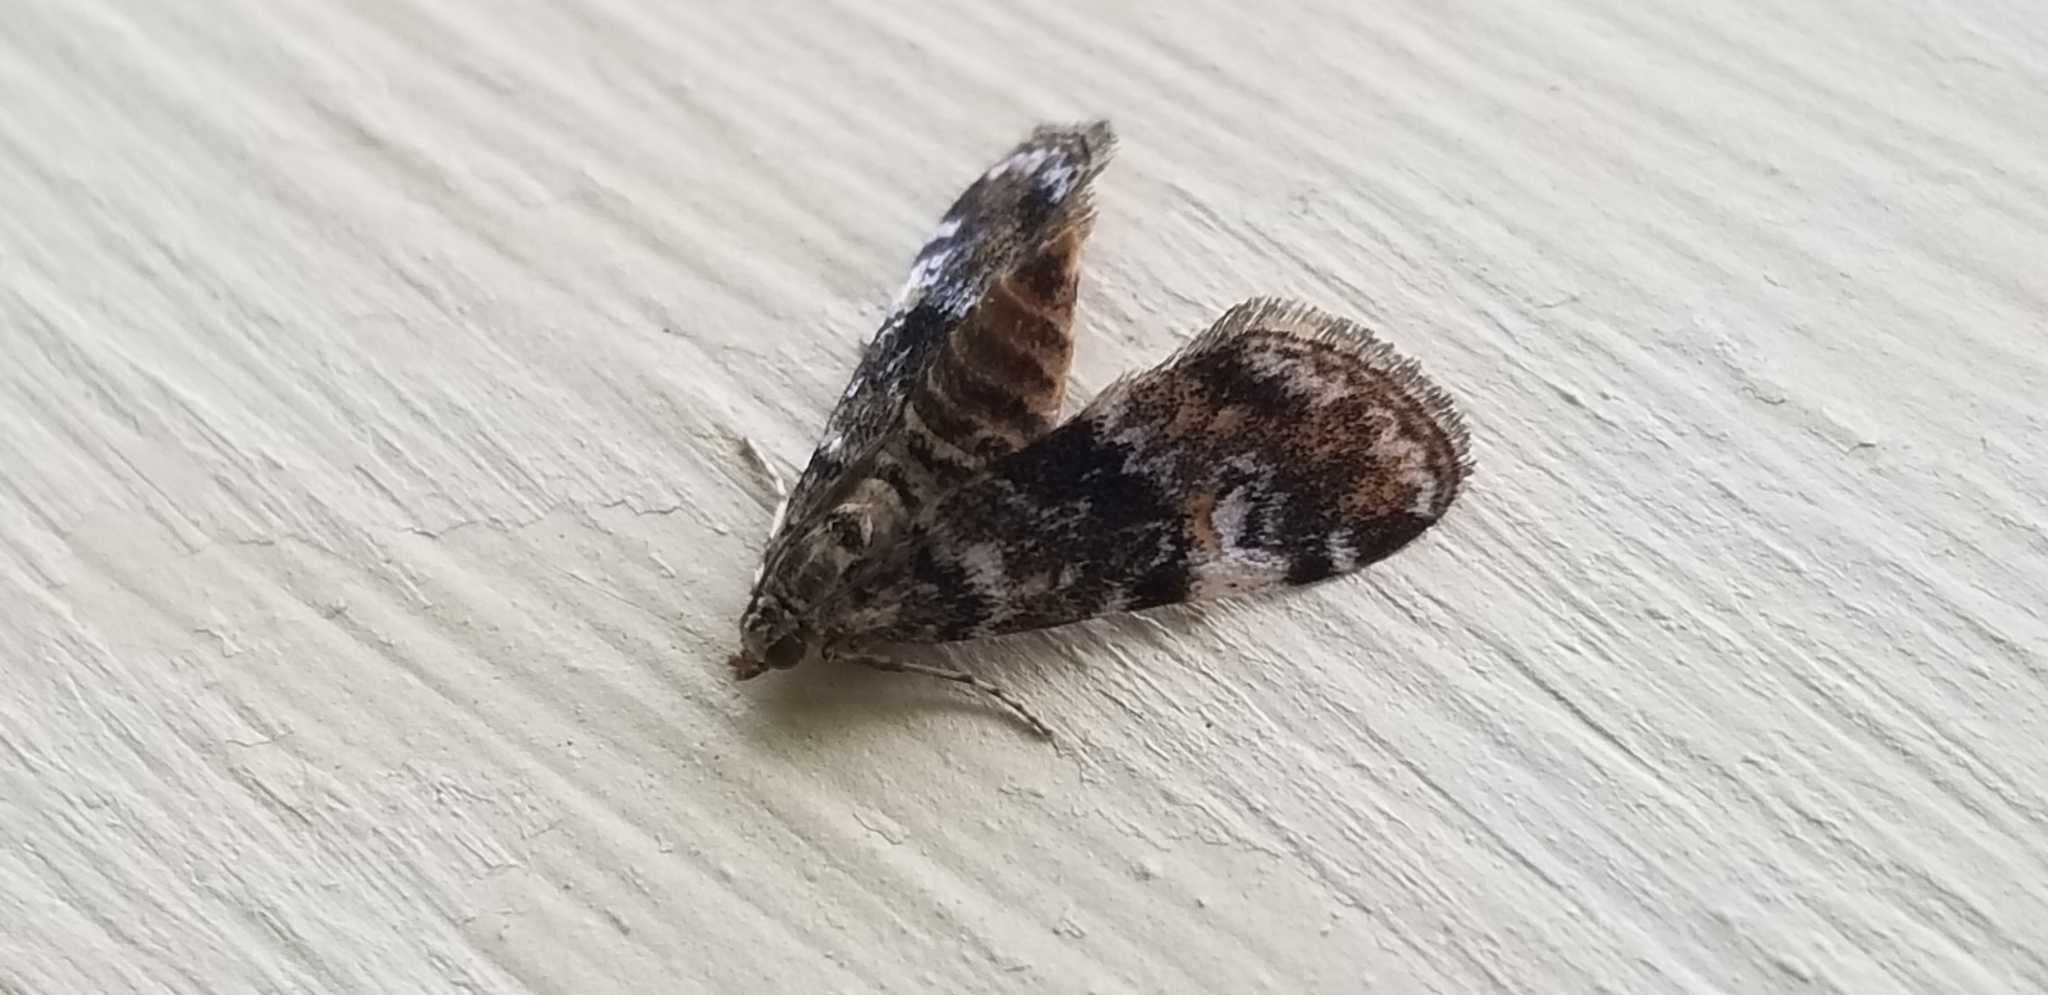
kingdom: Animalia
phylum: Arthropoda
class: Insecta
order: Lepidoptera
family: Crambidae
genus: Elophila
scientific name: Elophila obliteralis
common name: Waterlily leafcutter moth
